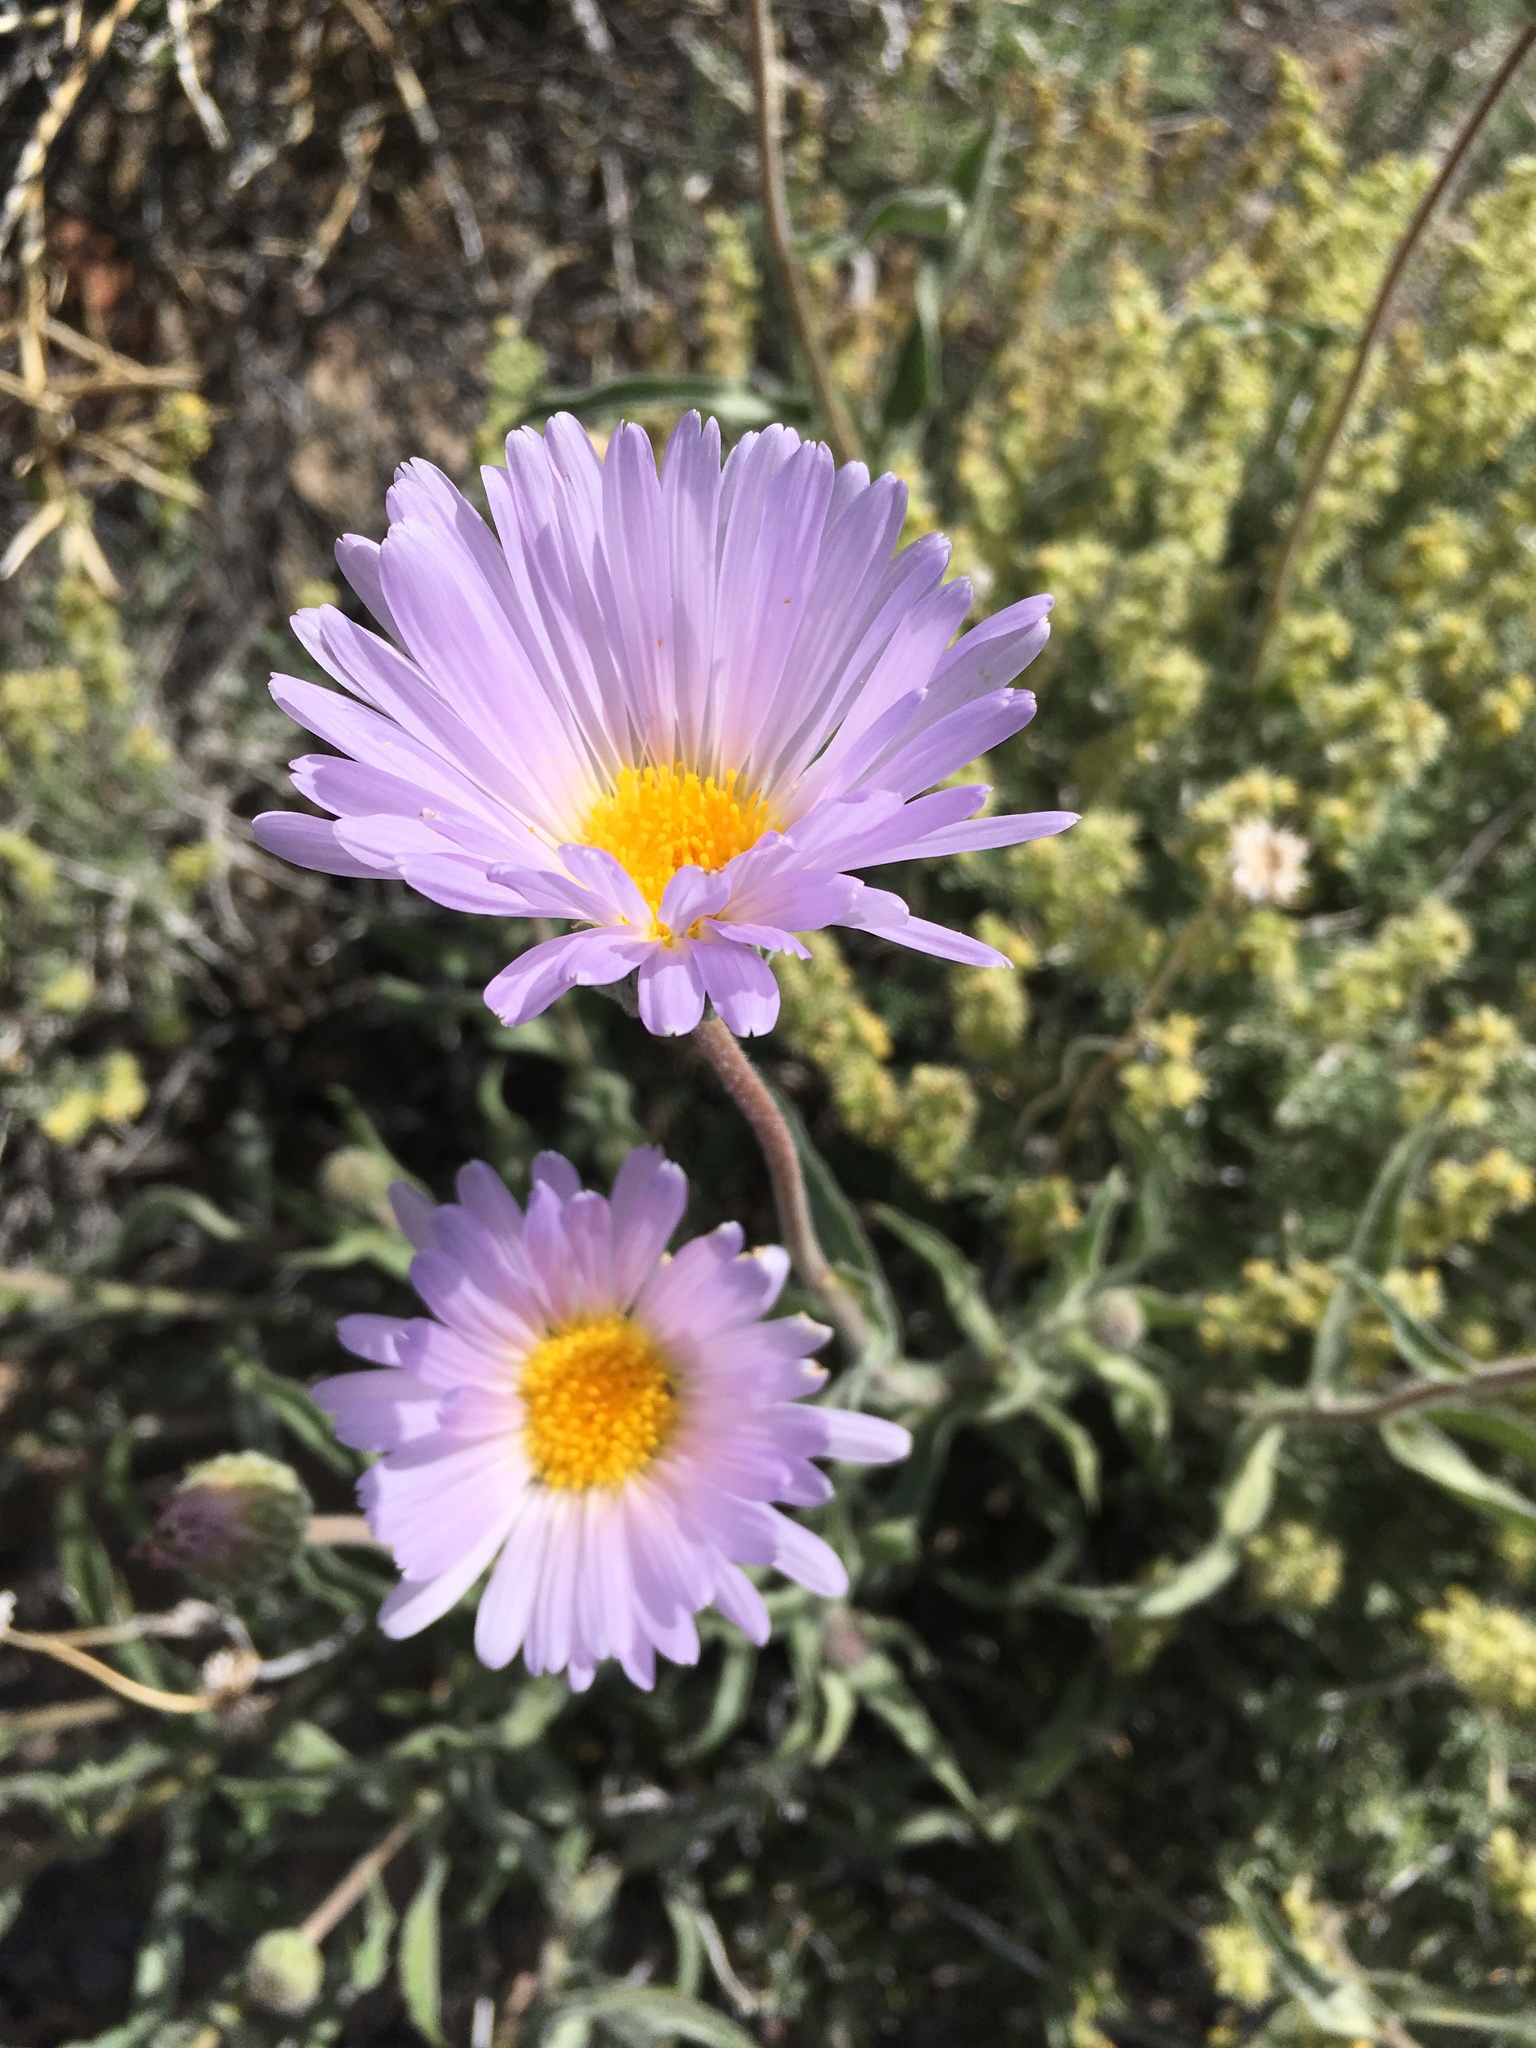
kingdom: Plantae
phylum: Tracheophyta
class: Magnoliopsida
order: Asterales
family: Asteraceae
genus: Xylorhiza
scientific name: Xylorhiza tortifolia
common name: Hurt-leaf woody-aster
